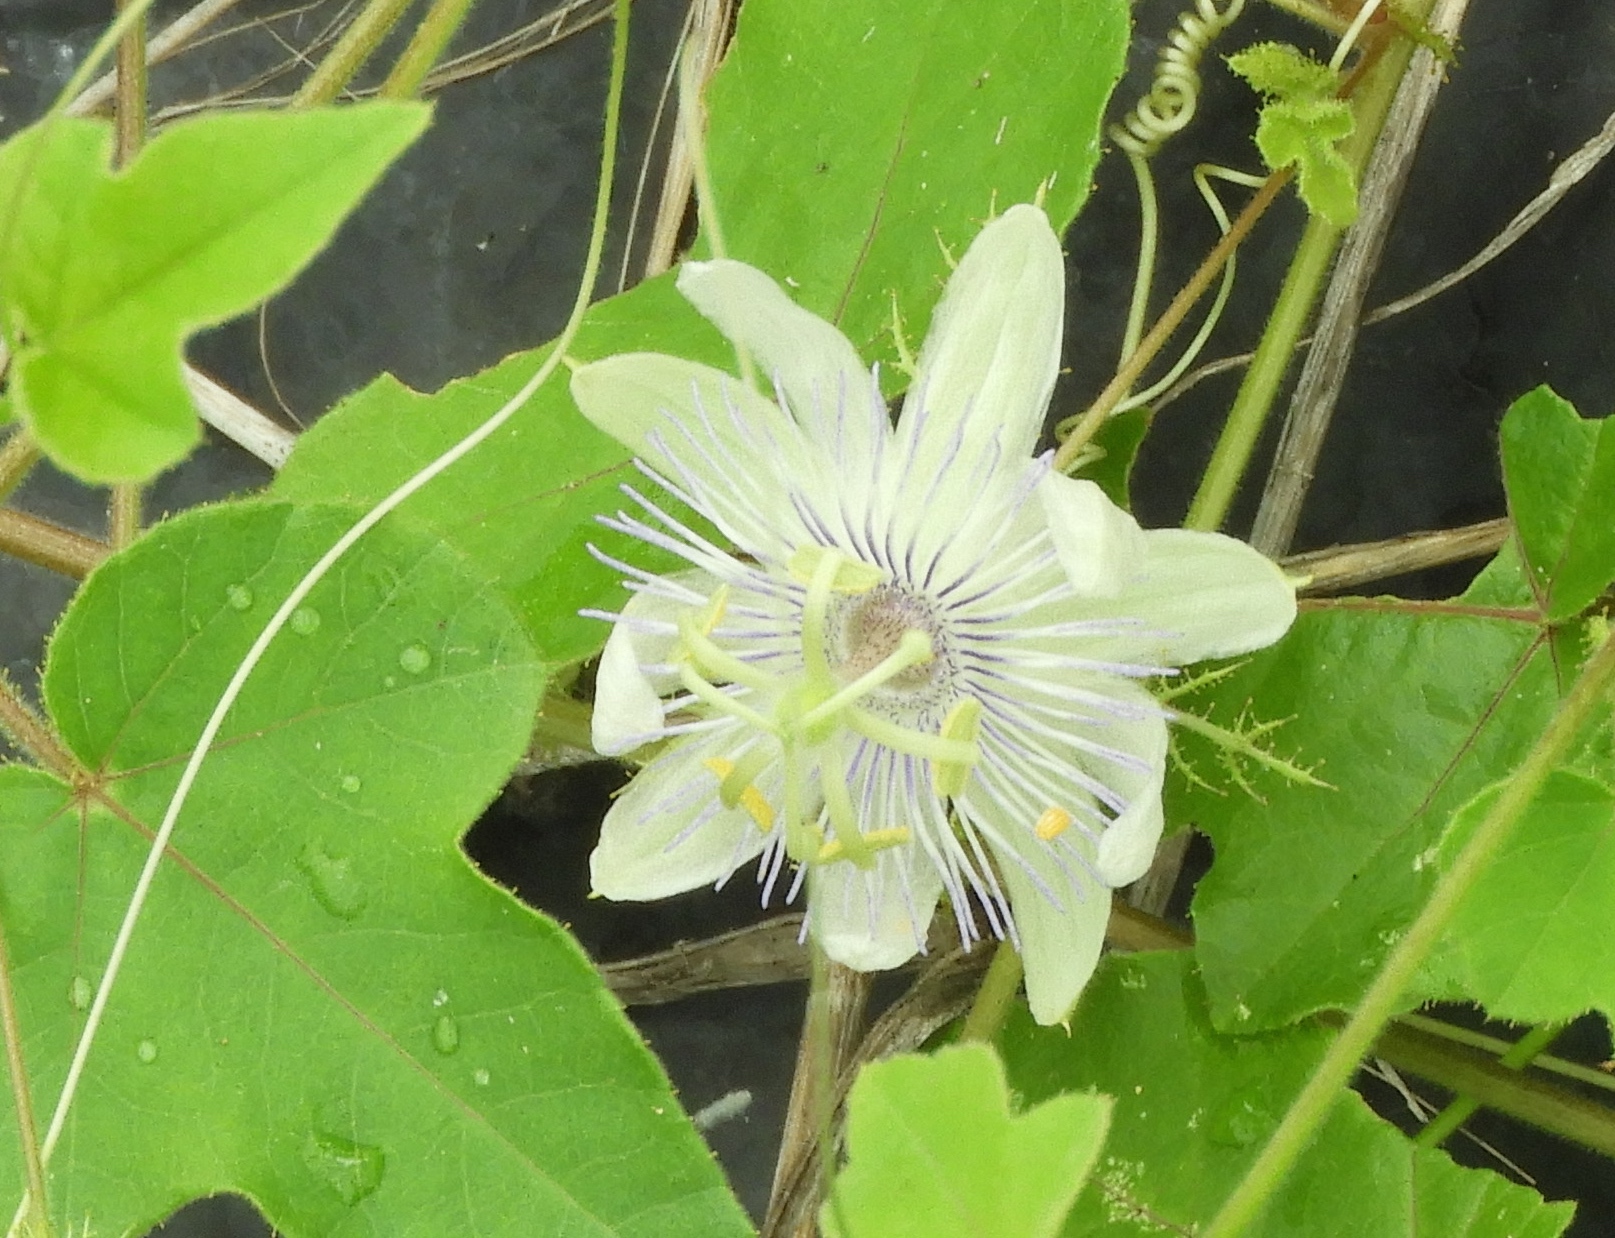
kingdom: Plantae
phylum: Tracheophyta
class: Magnoliopsida
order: Malpighiales
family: Passifloraceae
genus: Passiflora
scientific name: Passiflora foetida
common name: Fetid passionflower
